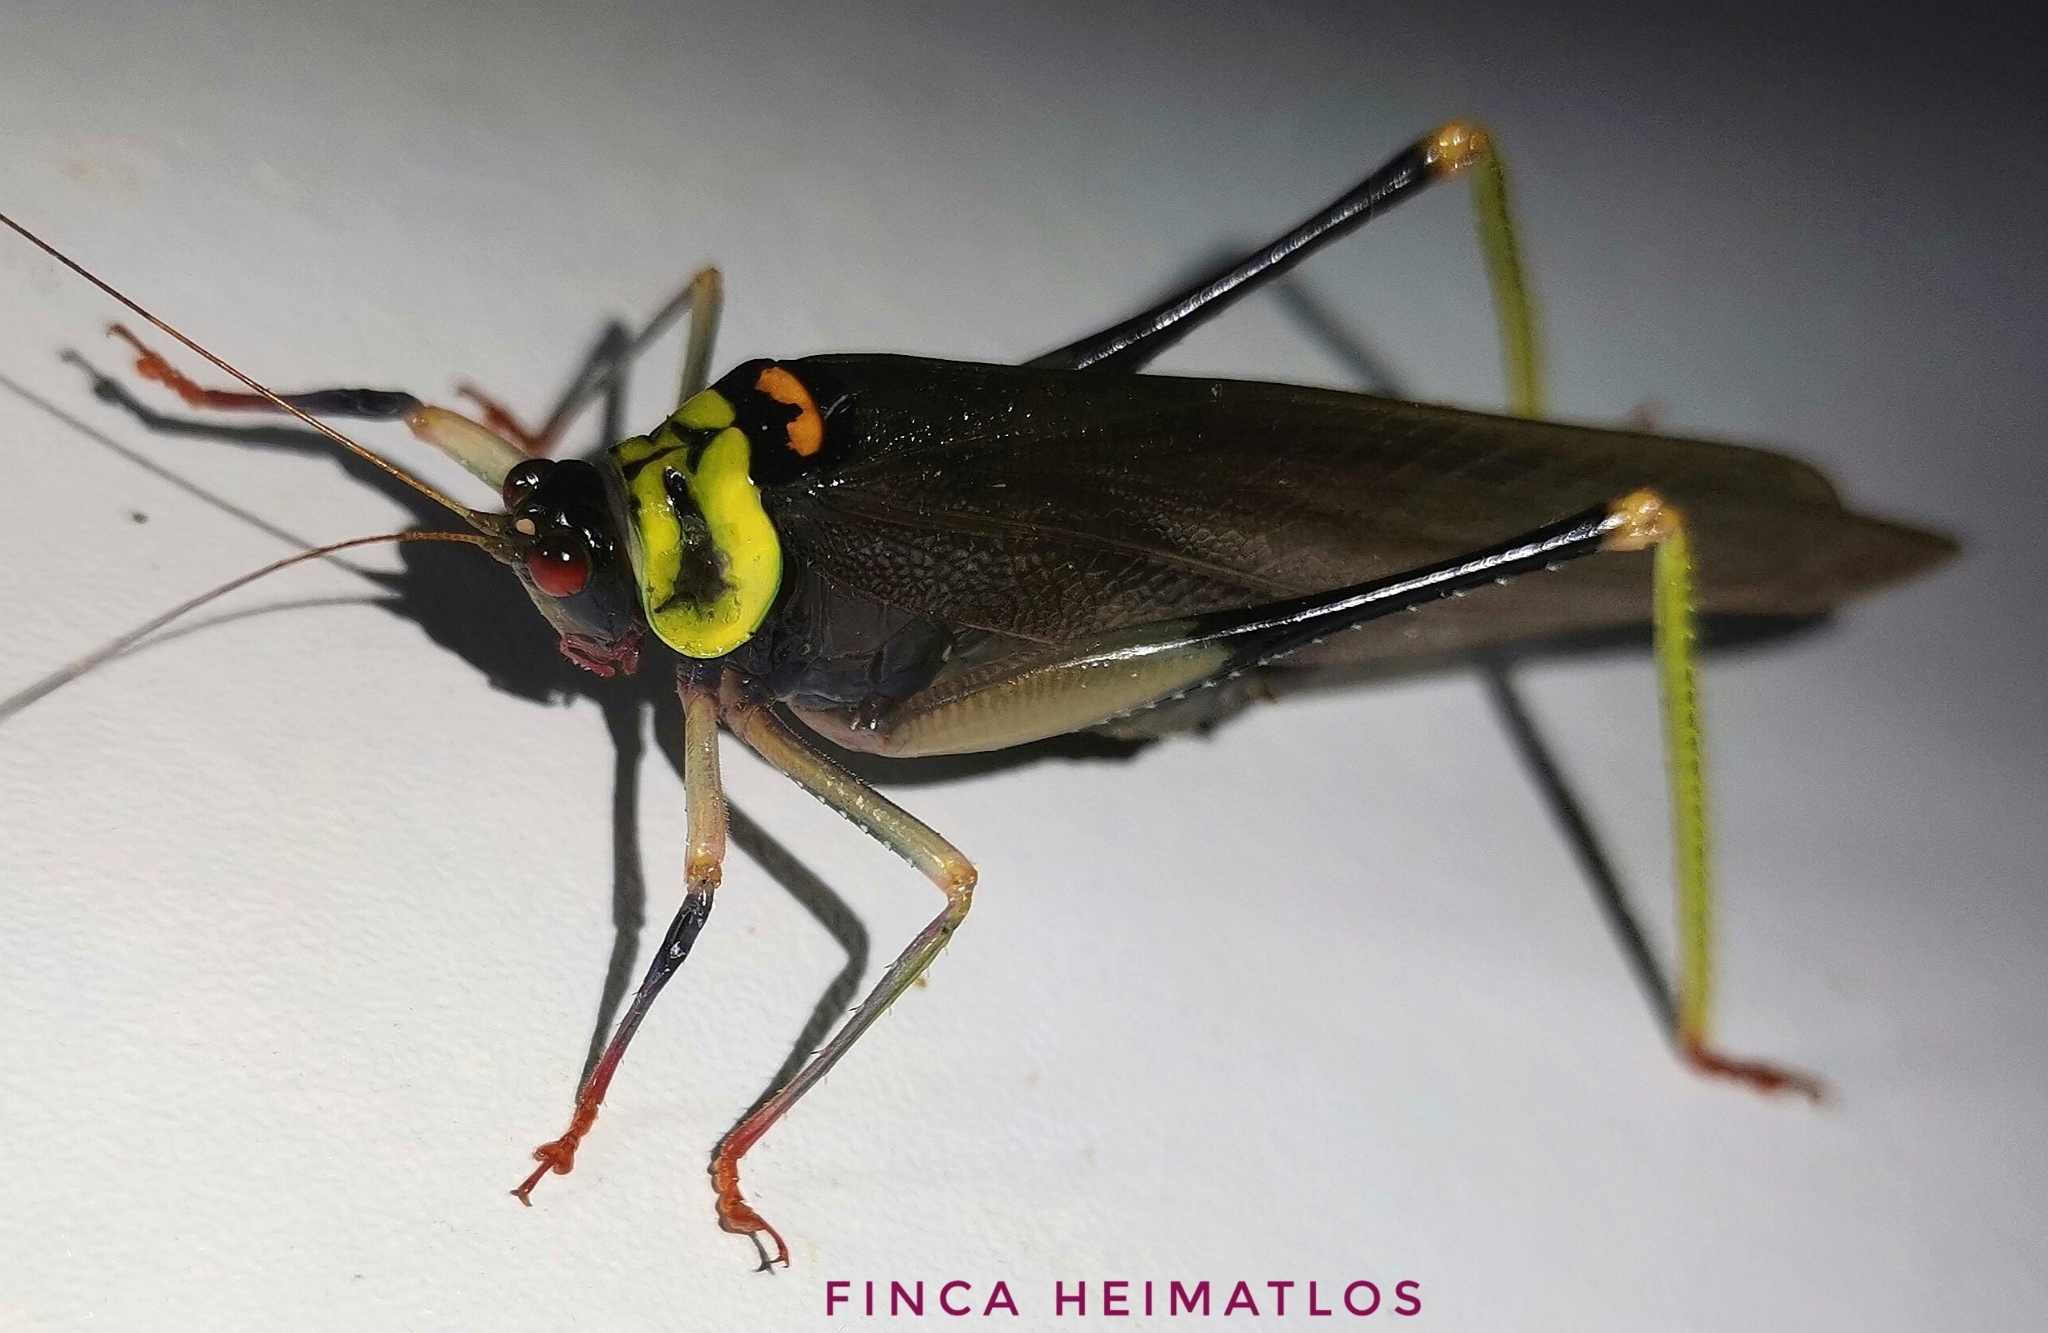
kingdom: Animalia
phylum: Arthropoda
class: Insecta
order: Orthoptera
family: Tettigoniidae
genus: Euceraia
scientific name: Euceraia insignis
